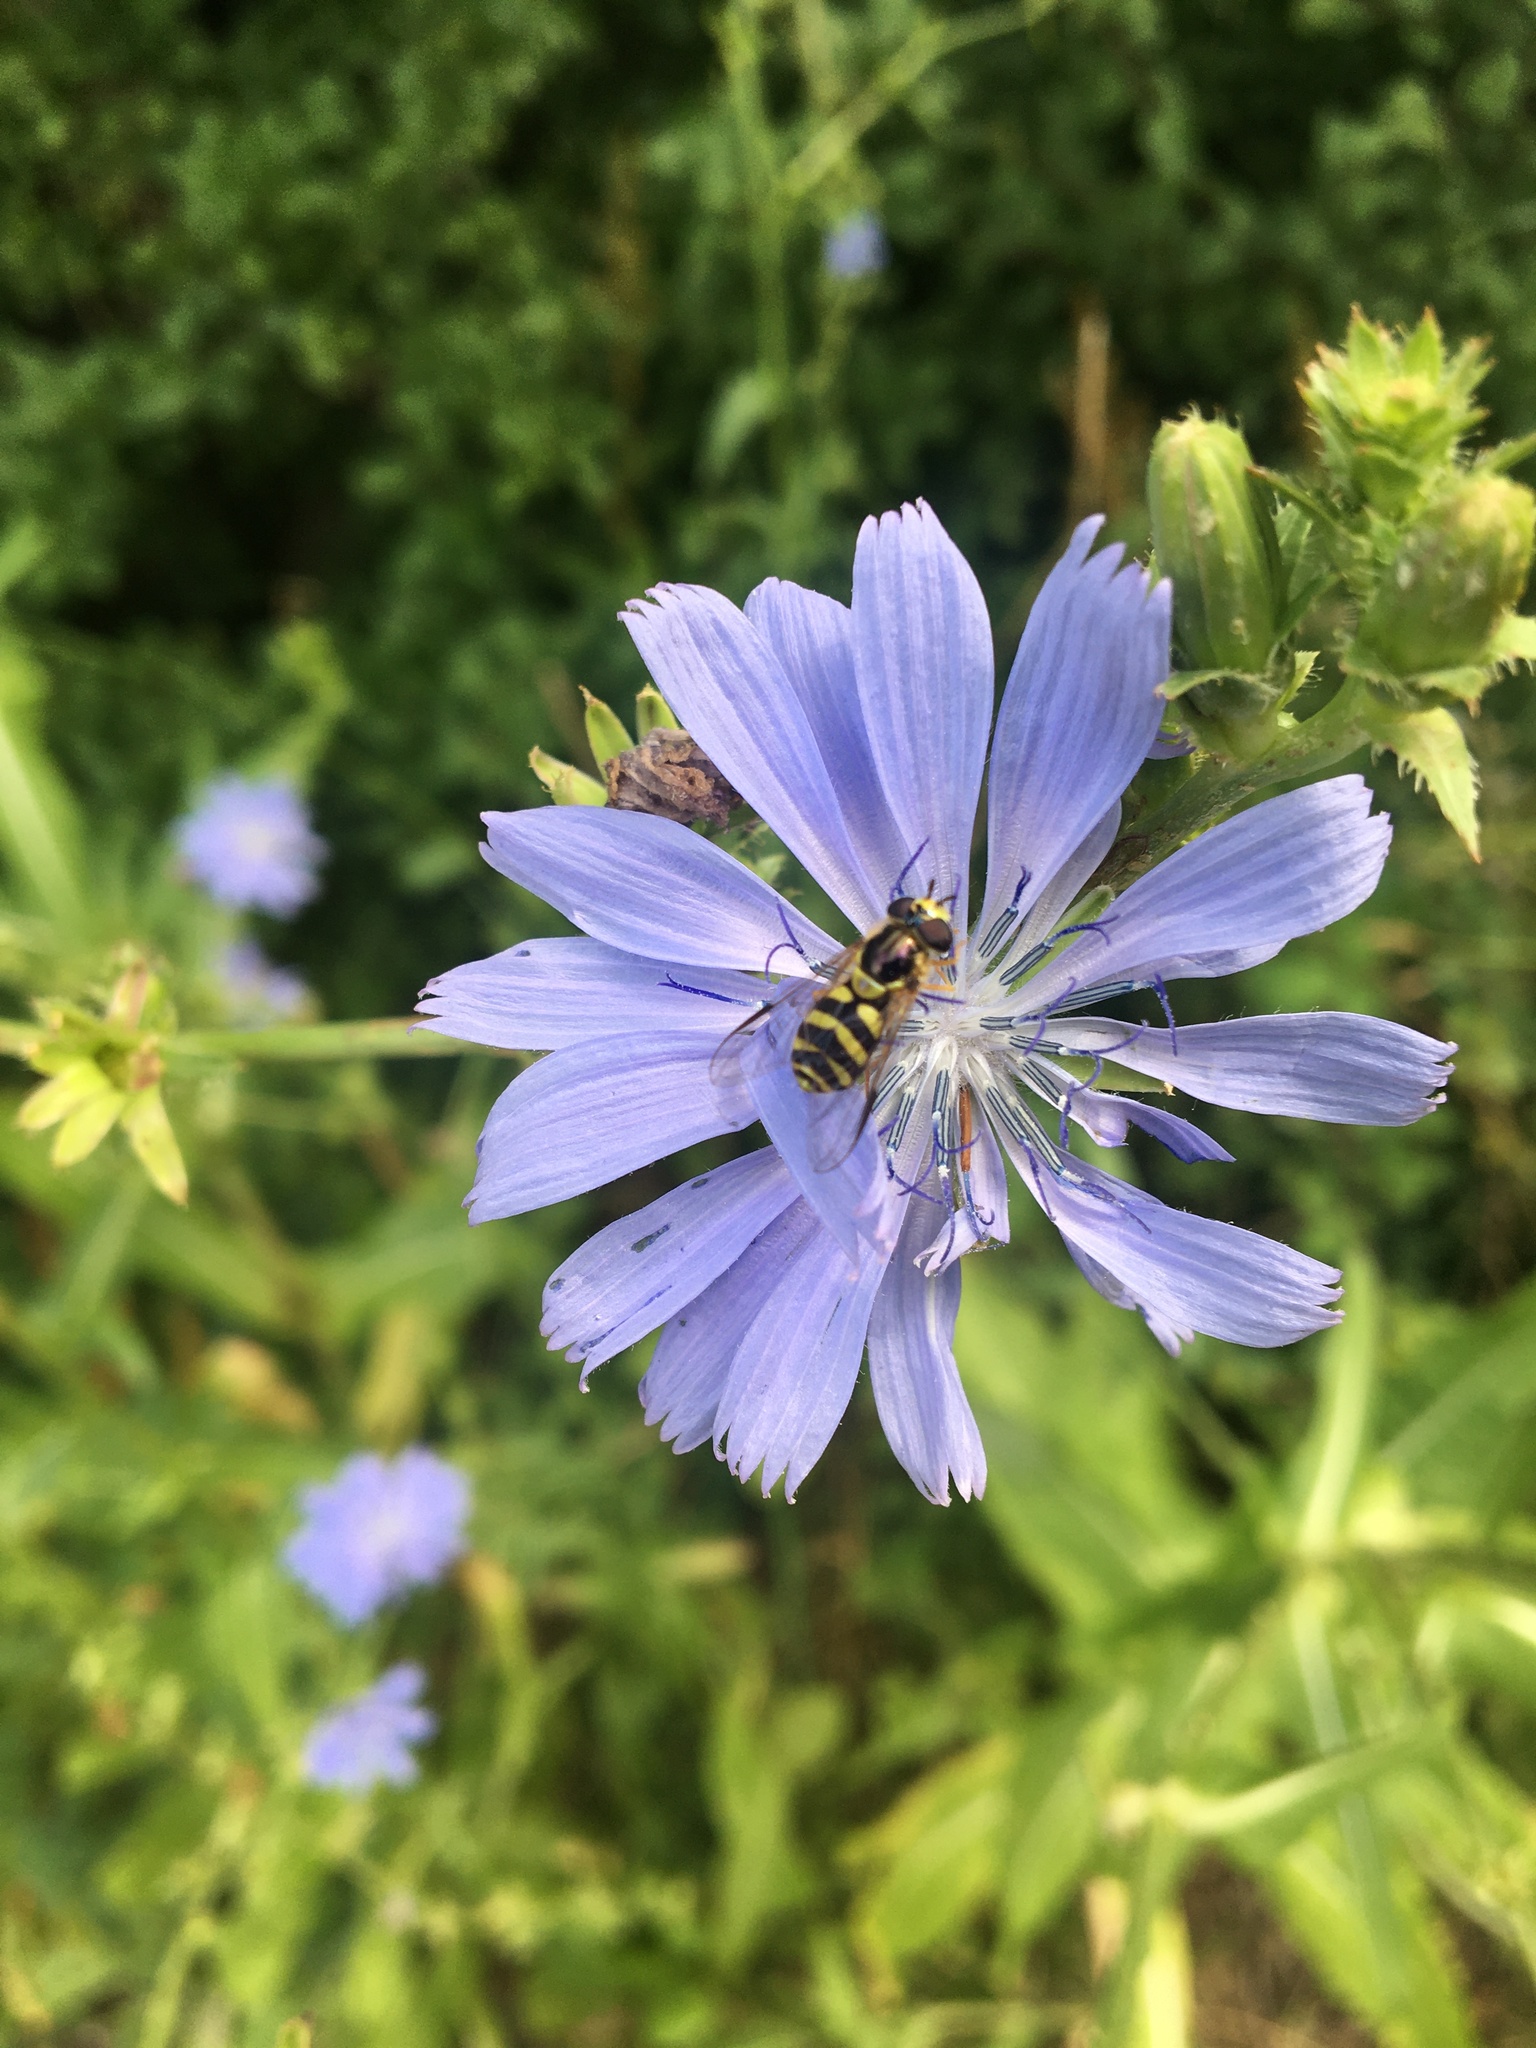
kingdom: Animalia
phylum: Arthropoda
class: Insecta
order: Diptera
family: Syrphidae
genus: Dasysyrphus
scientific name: Dasysyrphus albostriatus
